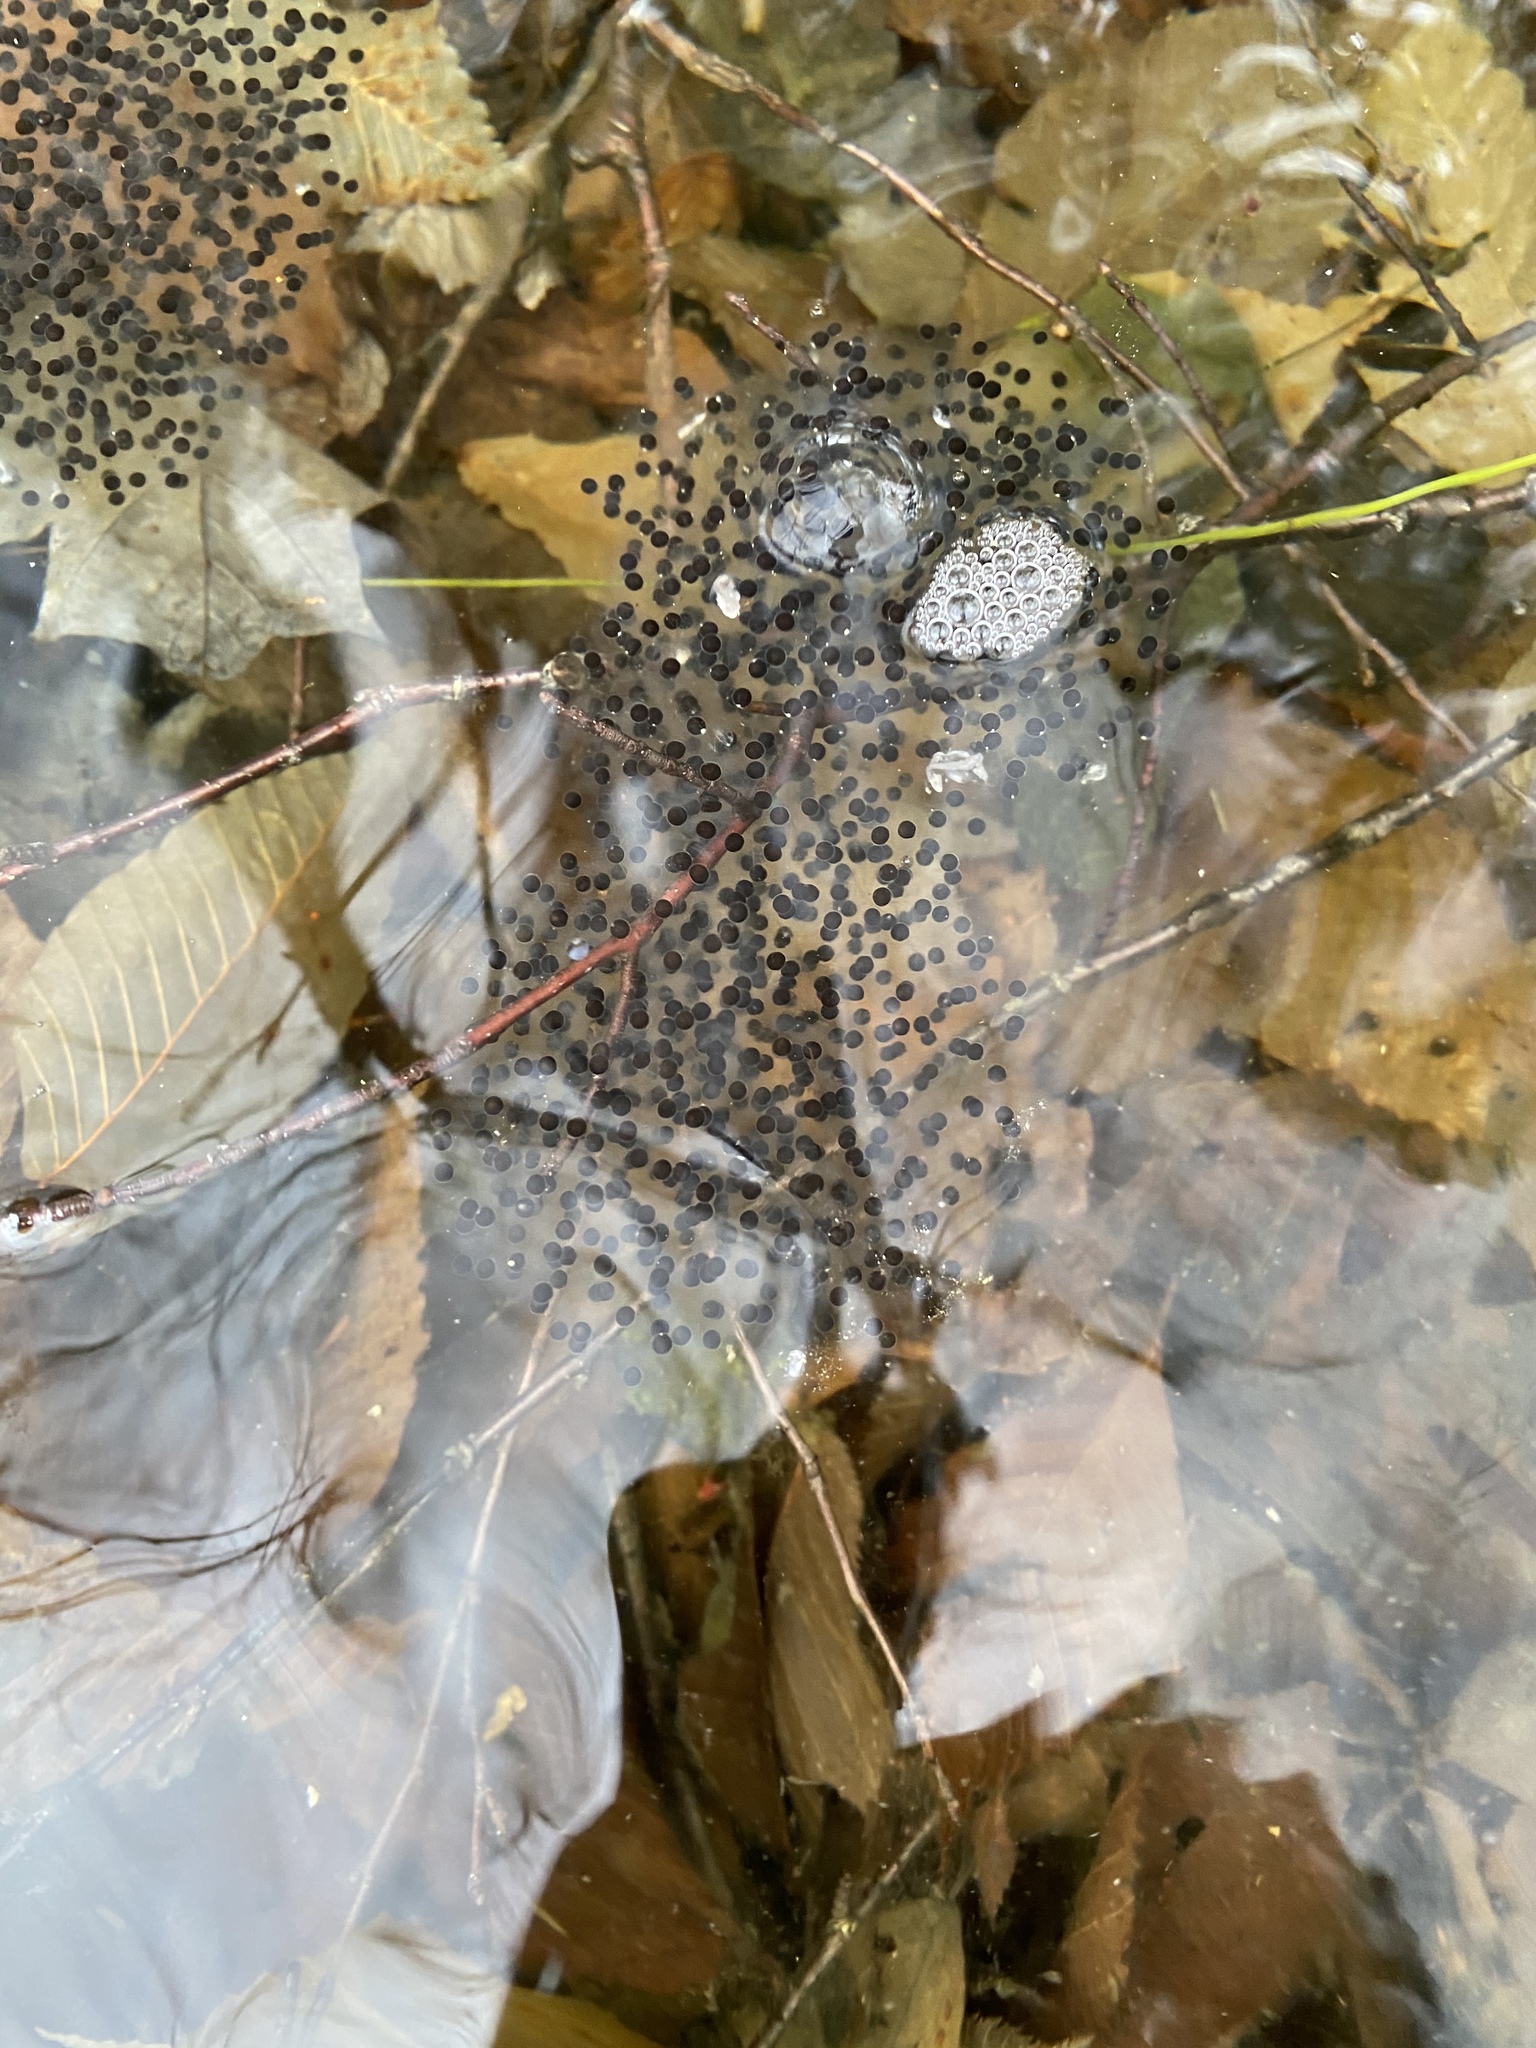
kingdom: Animalia
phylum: Chordata
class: Amphibia
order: Anura
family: Ranidae
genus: Lithobates
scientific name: Lithobates sylvaticus
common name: Wood frog
